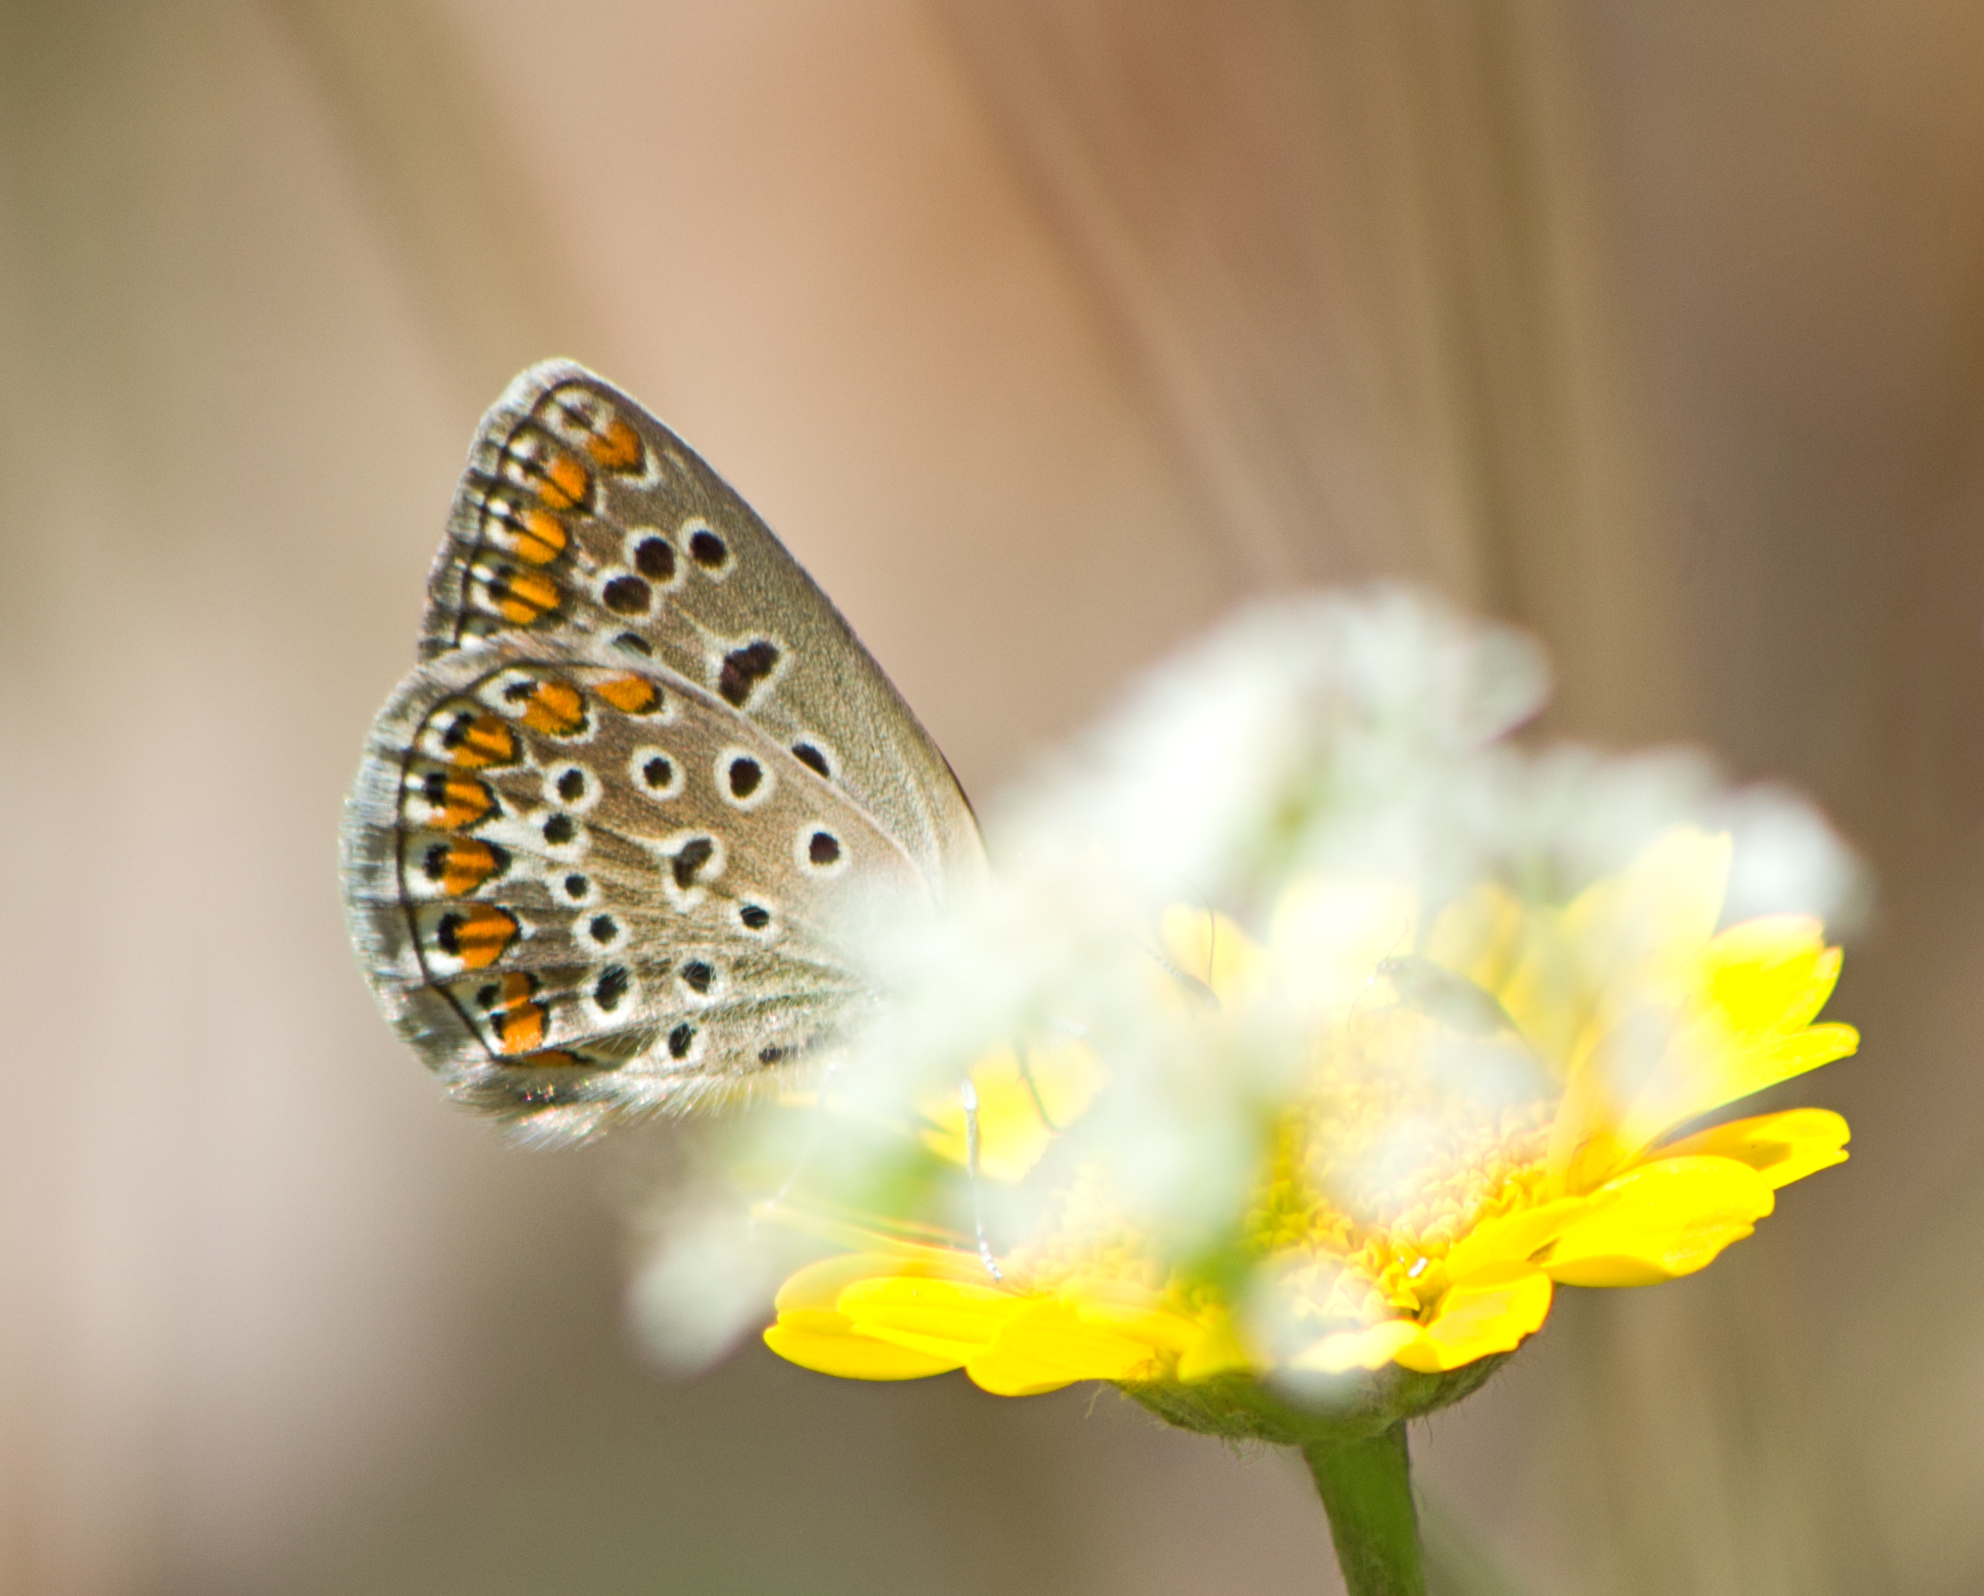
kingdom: Animalia
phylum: Arthropoda
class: Insecta
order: Lepidoptera
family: Lycaenidae
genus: Polyommatus
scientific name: Polyommatus icarus
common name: Common blue
